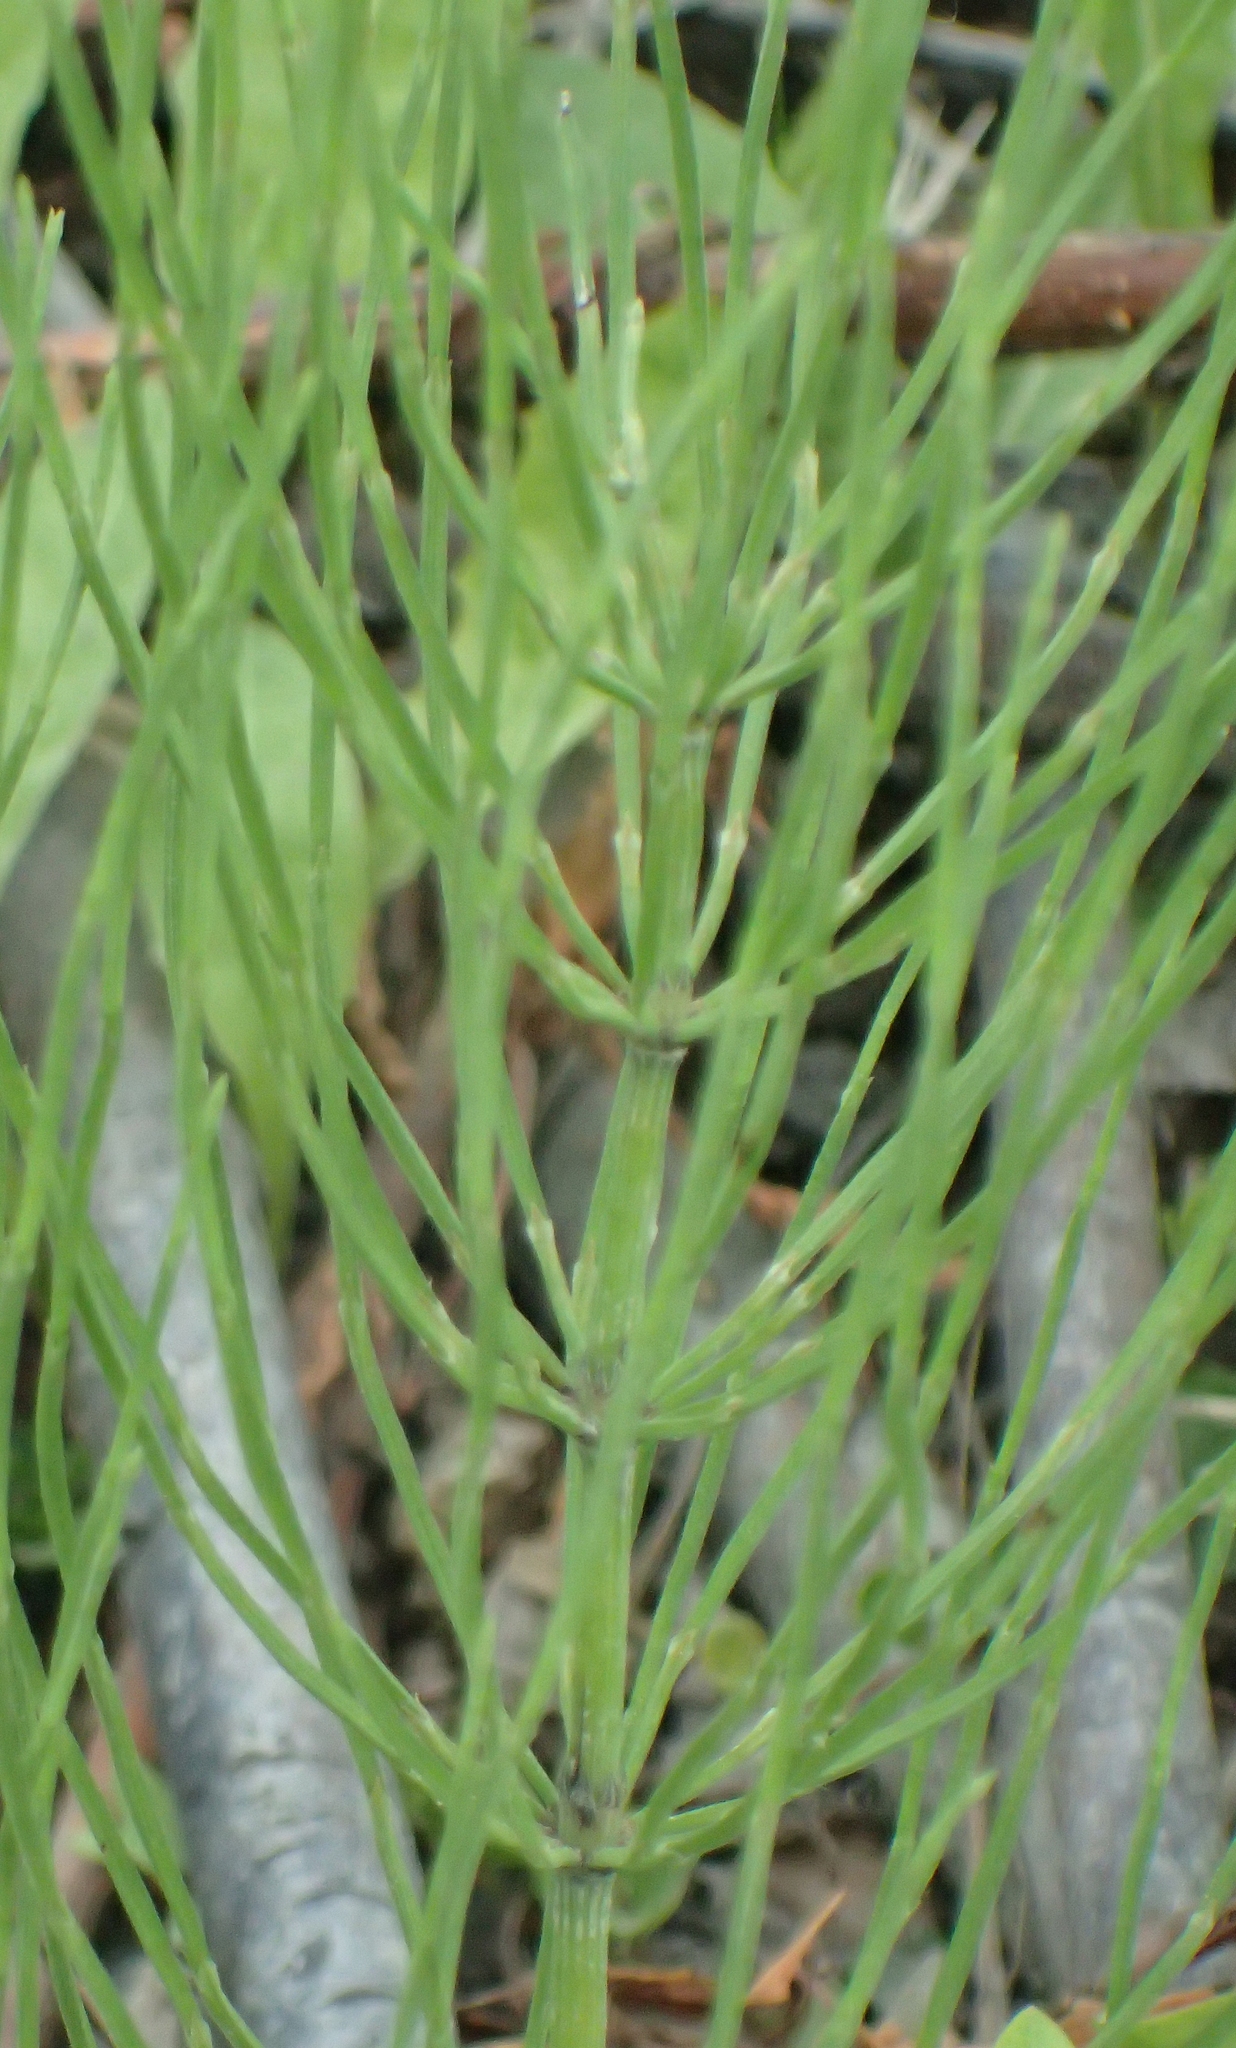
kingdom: Plantae
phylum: Tracheophyta
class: Polypodiopsida
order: Equisetales
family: Equisetaceae
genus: Equisetum
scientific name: Equisetum arvense
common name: Field horsetail
